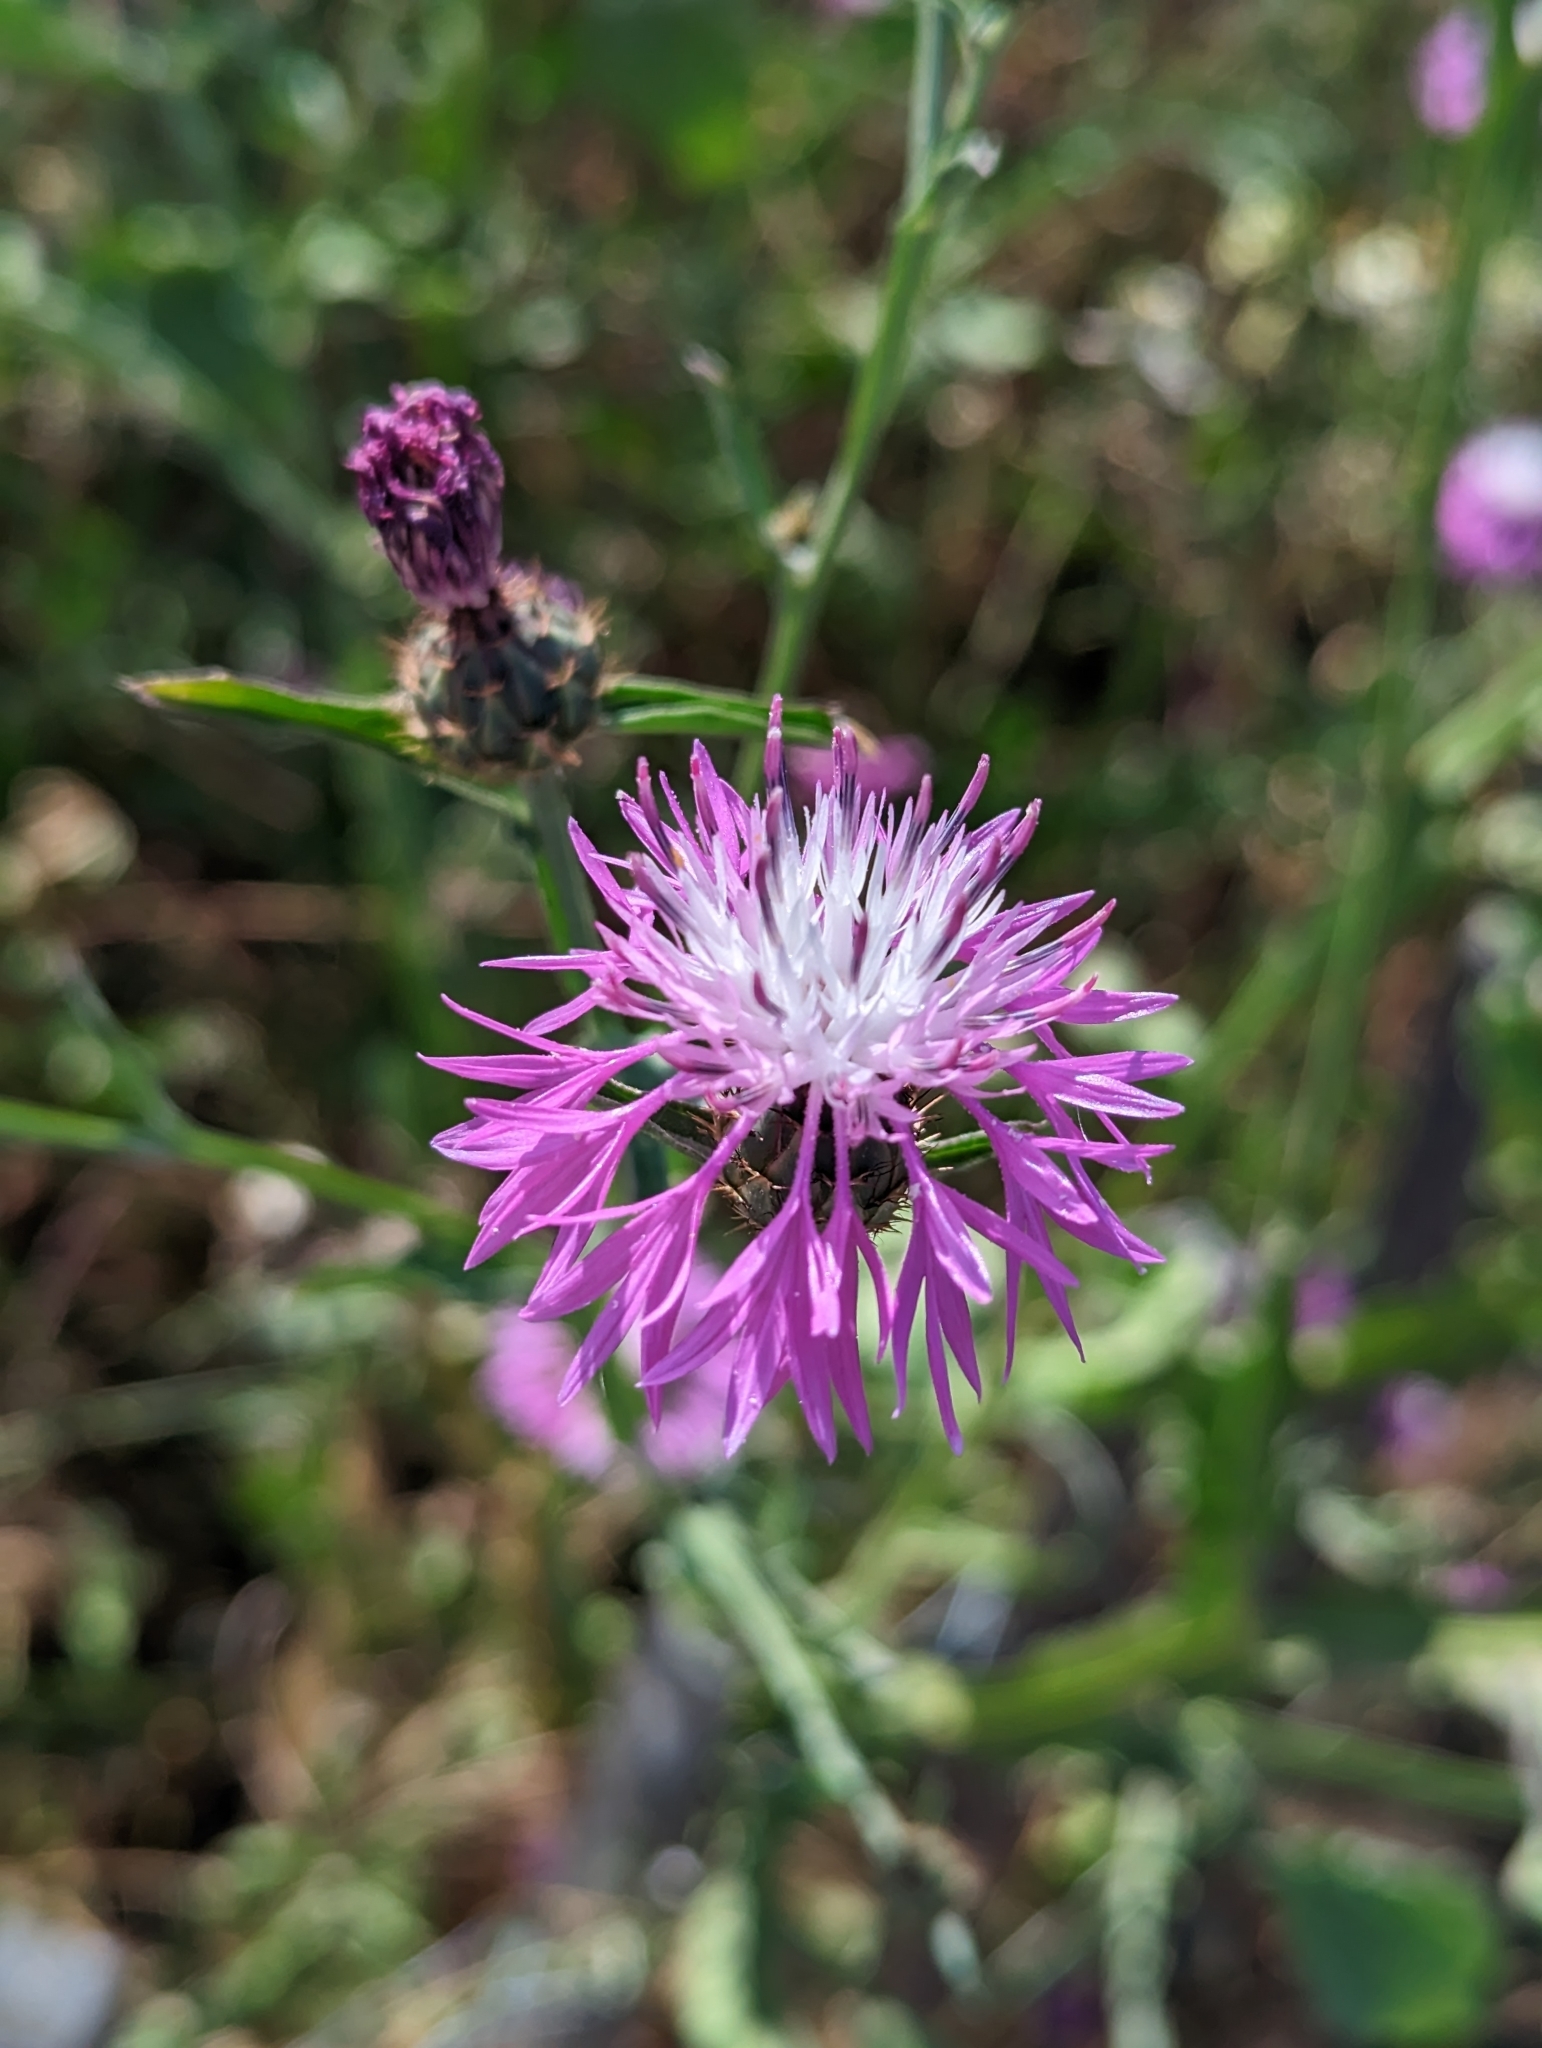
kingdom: Plantae
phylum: Tracheophyta
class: Magnoliopsida
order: Asterales
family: Asteraceae
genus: Centaurea
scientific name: Centaurea napifolia
